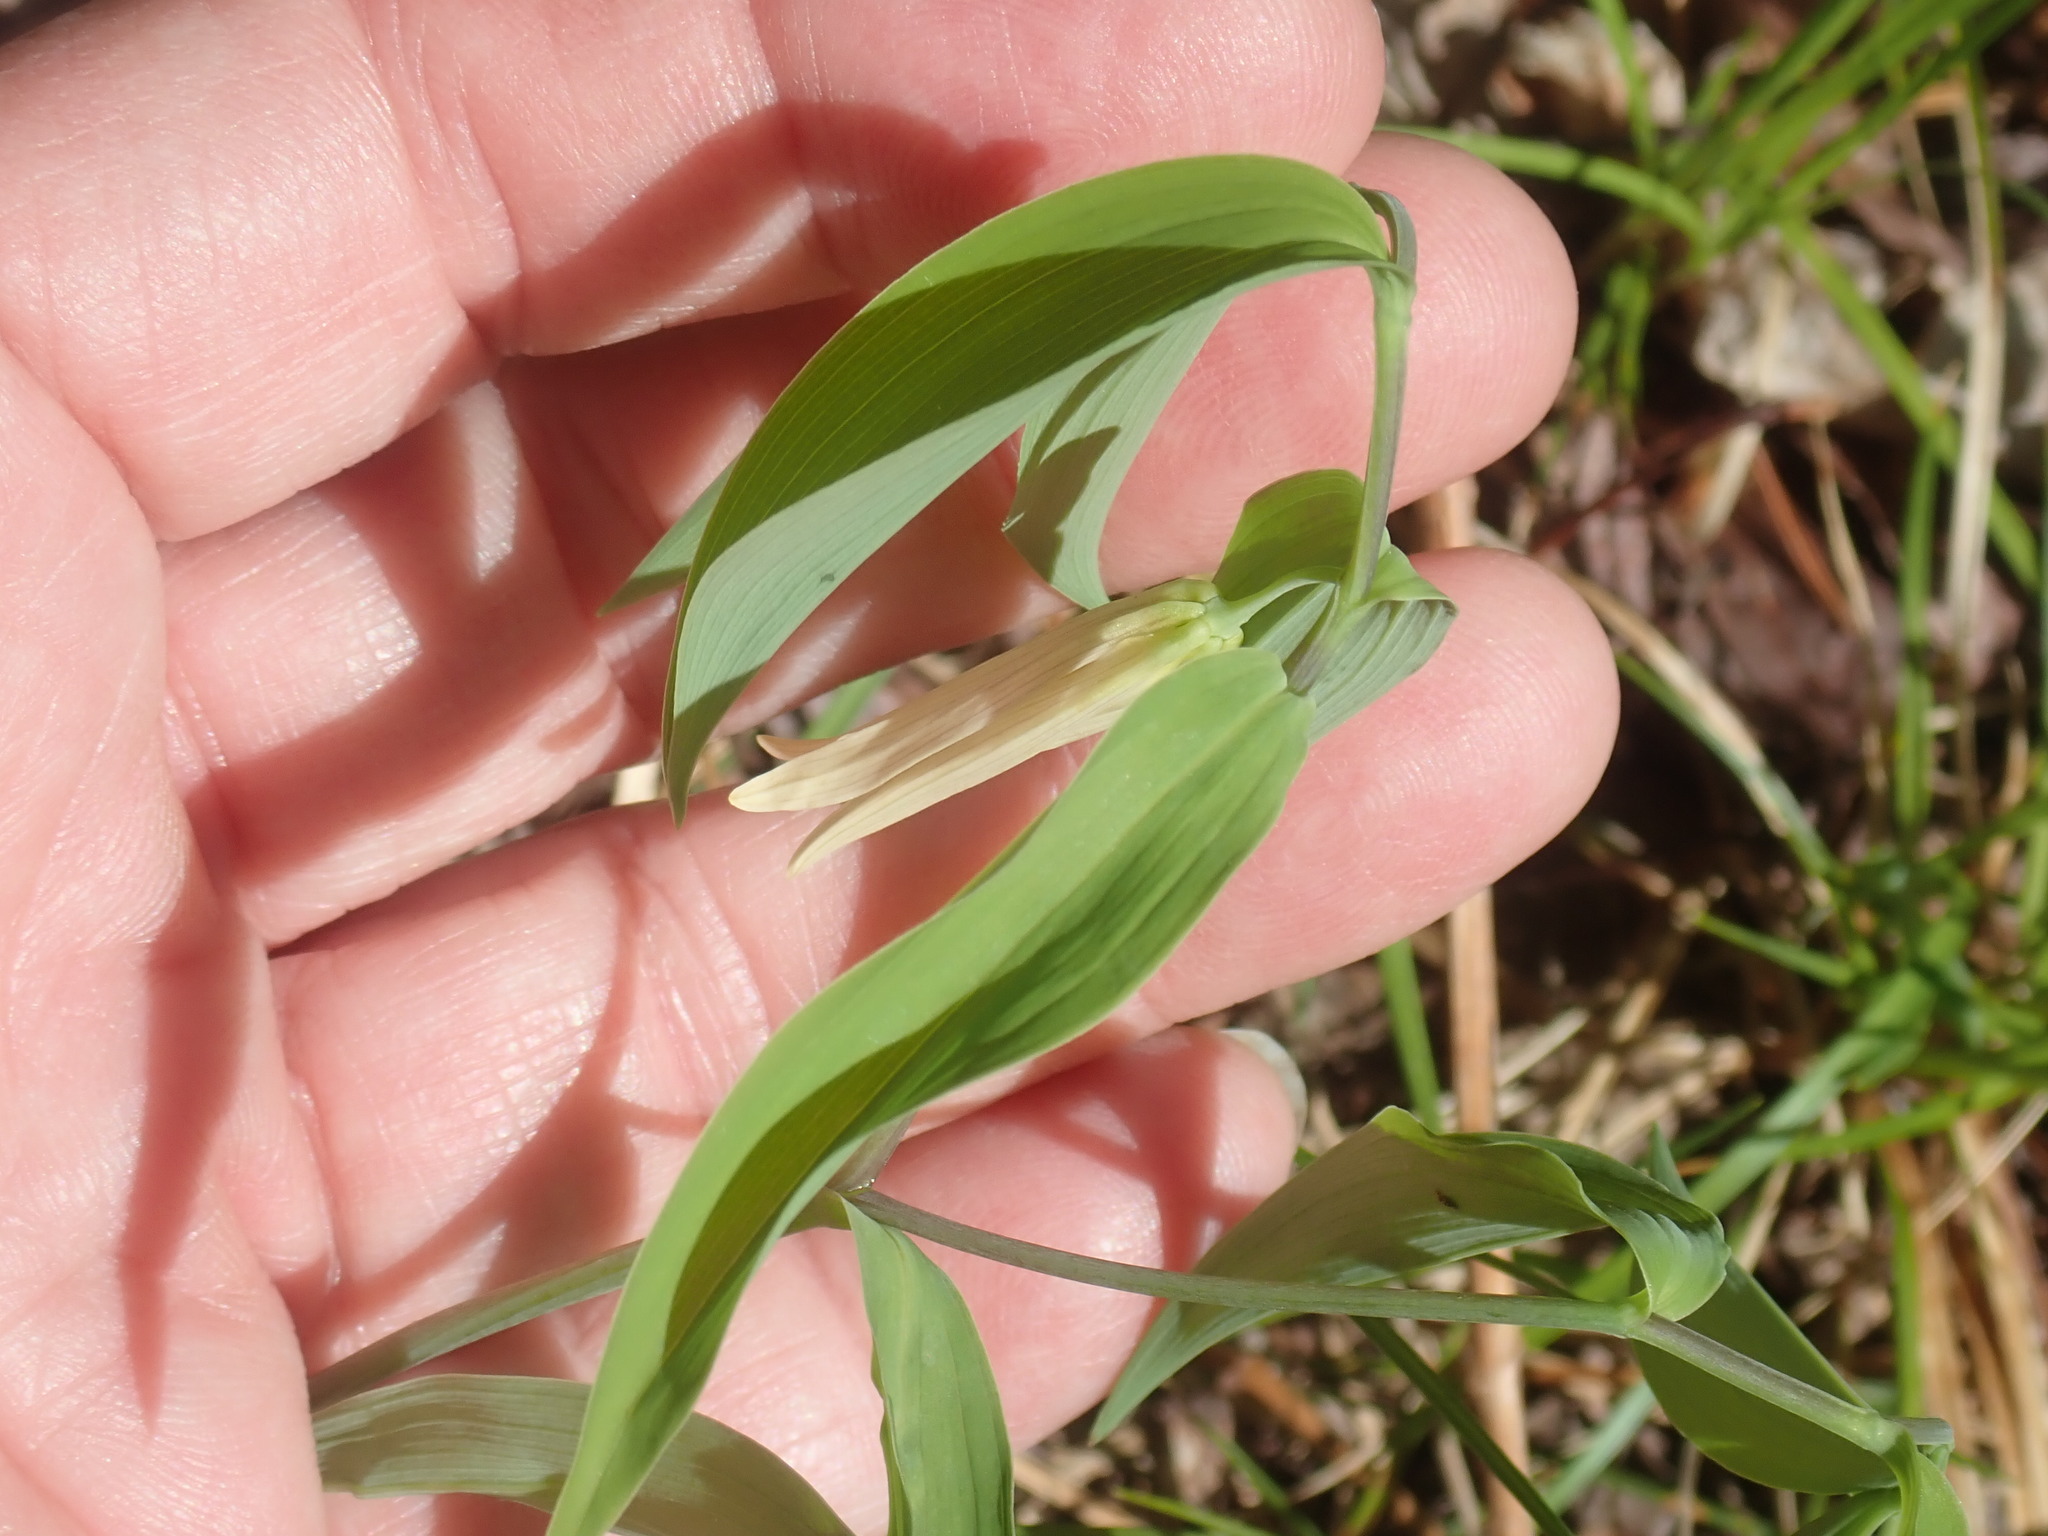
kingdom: Plantae
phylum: Tracheophyta
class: Liliopsida
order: Liliales
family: Colchicaceae
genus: Uvularia
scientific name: Uvularia sessilifolia
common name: Straw-lily
